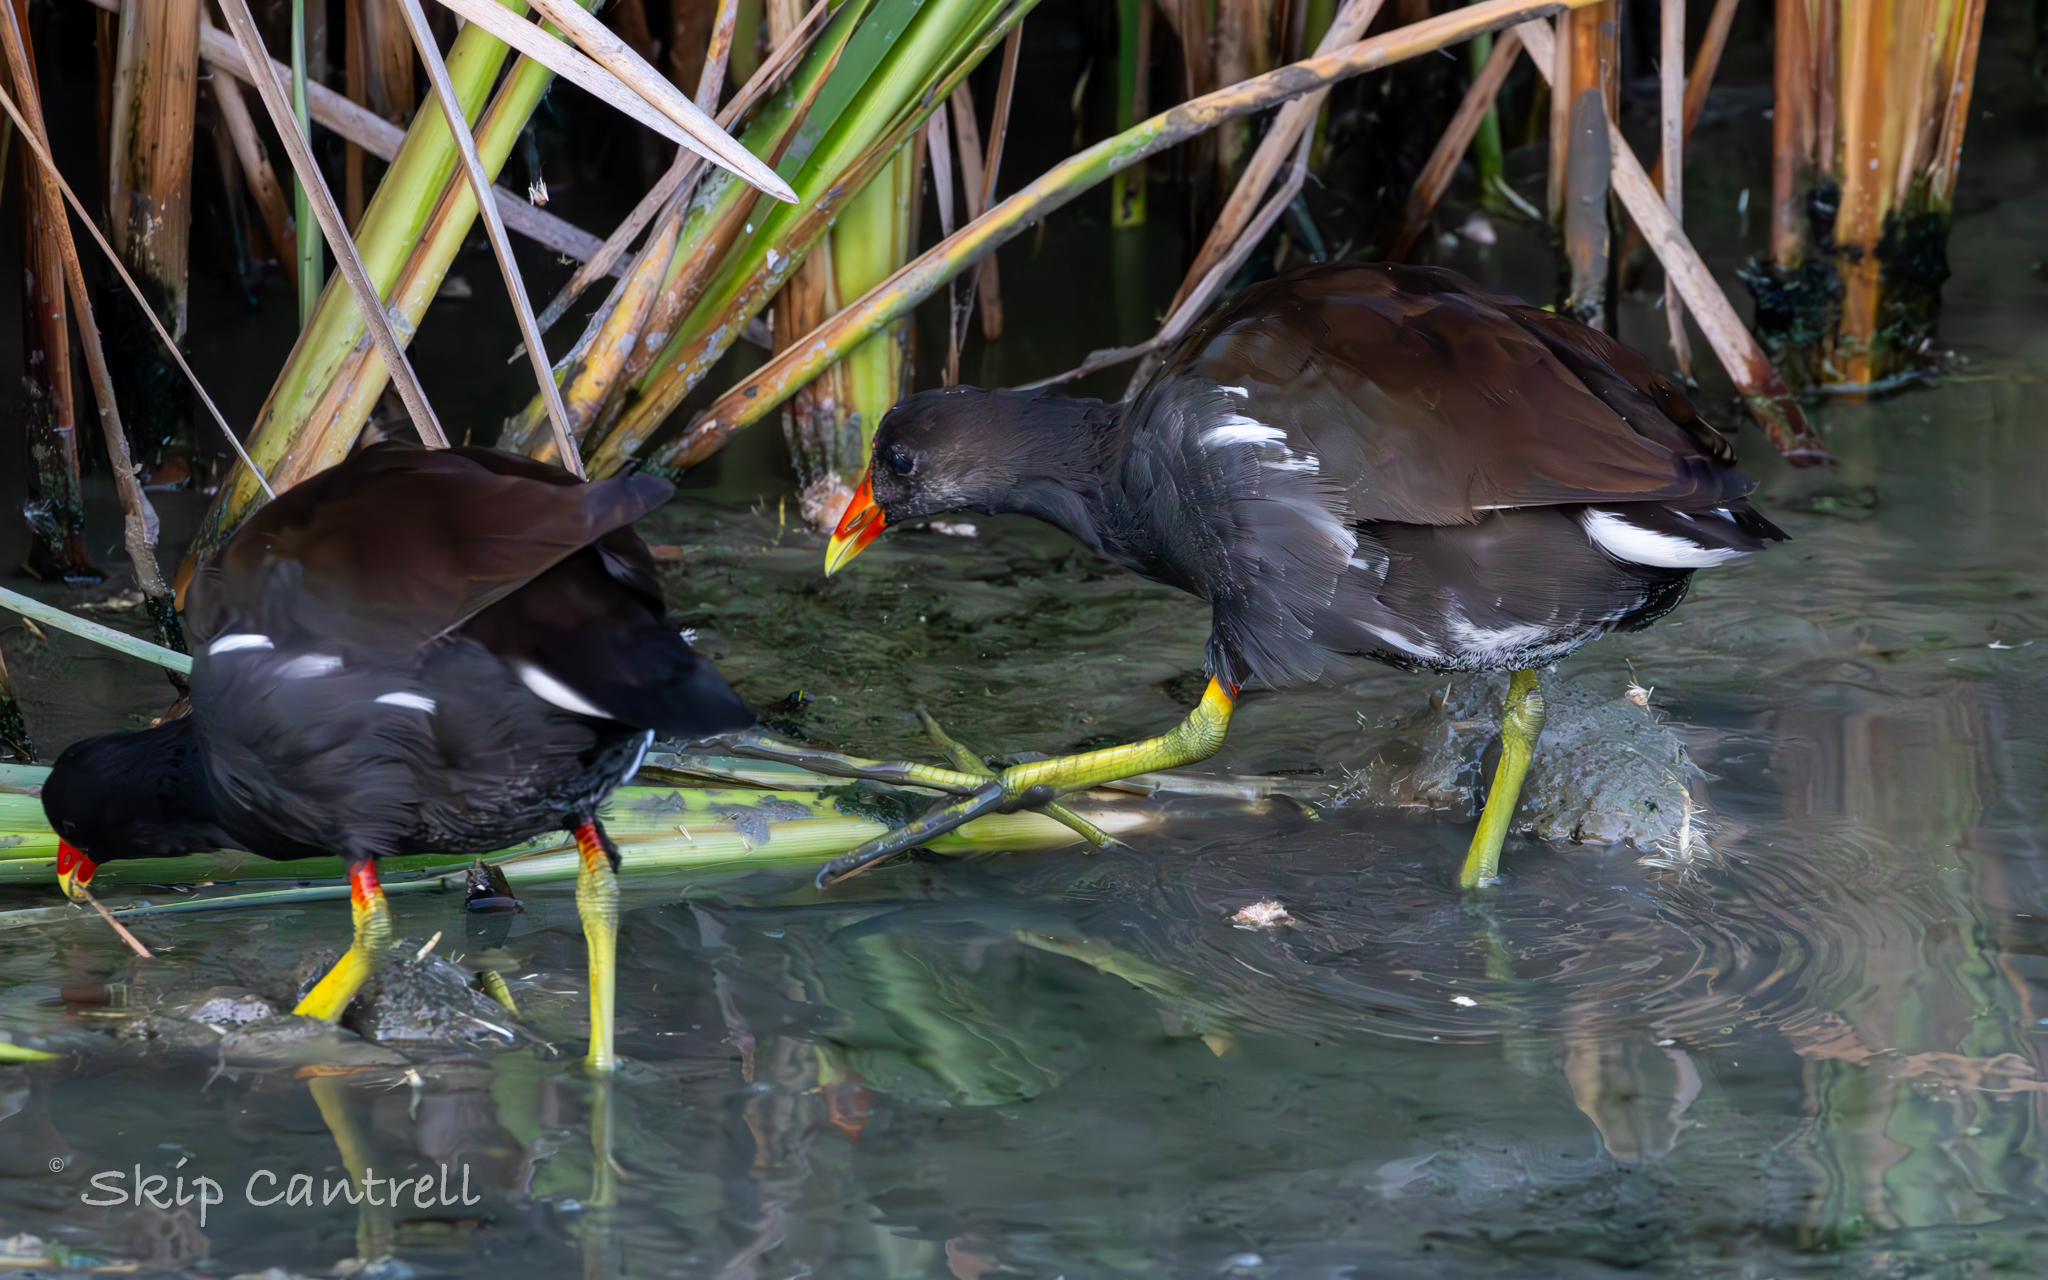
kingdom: Animalia
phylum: Chordata
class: Aves
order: Gruiformes
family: Rallidae
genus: Gallinula
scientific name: Gallinula chloropus
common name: Common moorhen
